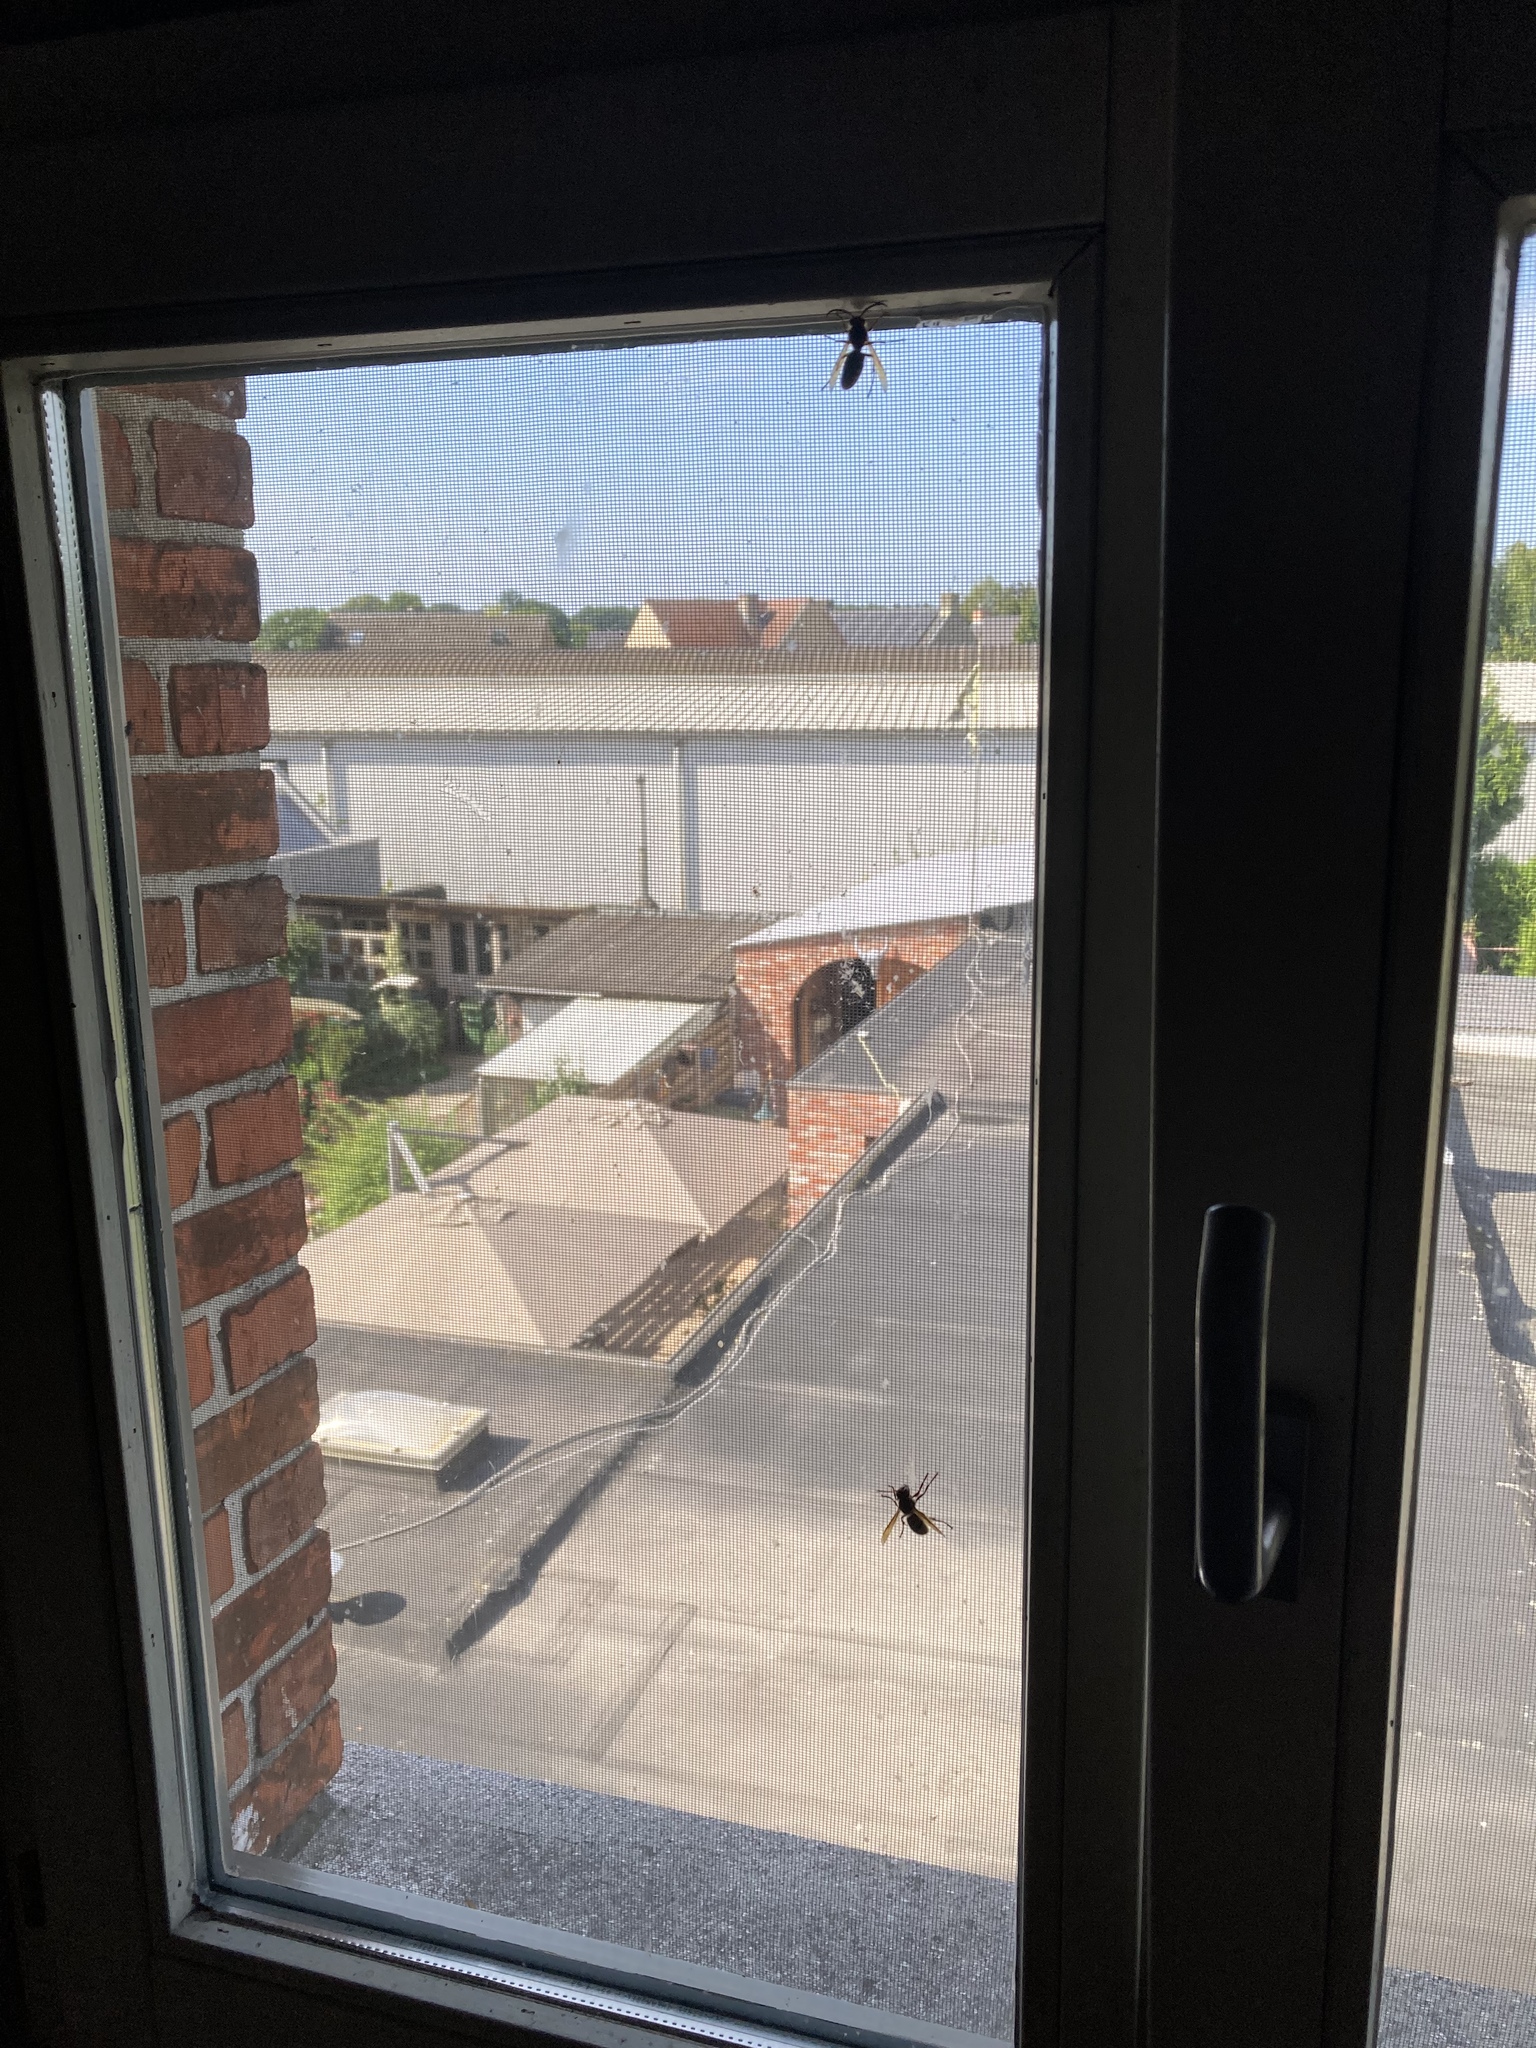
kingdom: Animalia
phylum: Arthropoda
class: Insecta
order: Hymenoptera
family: Vespidae
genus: Vespa
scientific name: Vespa crabro
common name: Hornet
